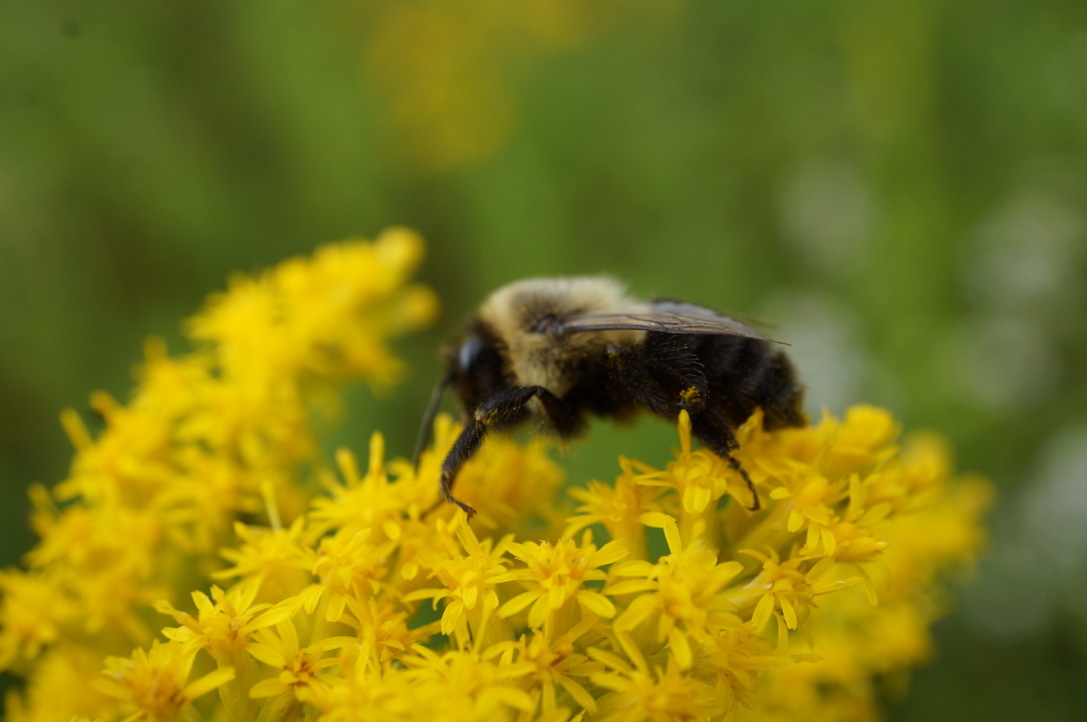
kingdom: Animalia
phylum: Arthropoda
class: Insecta
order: Hymenoptera
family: Apidae
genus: Bombus
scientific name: Bombus impatiens
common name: Common eastern bumble bee
